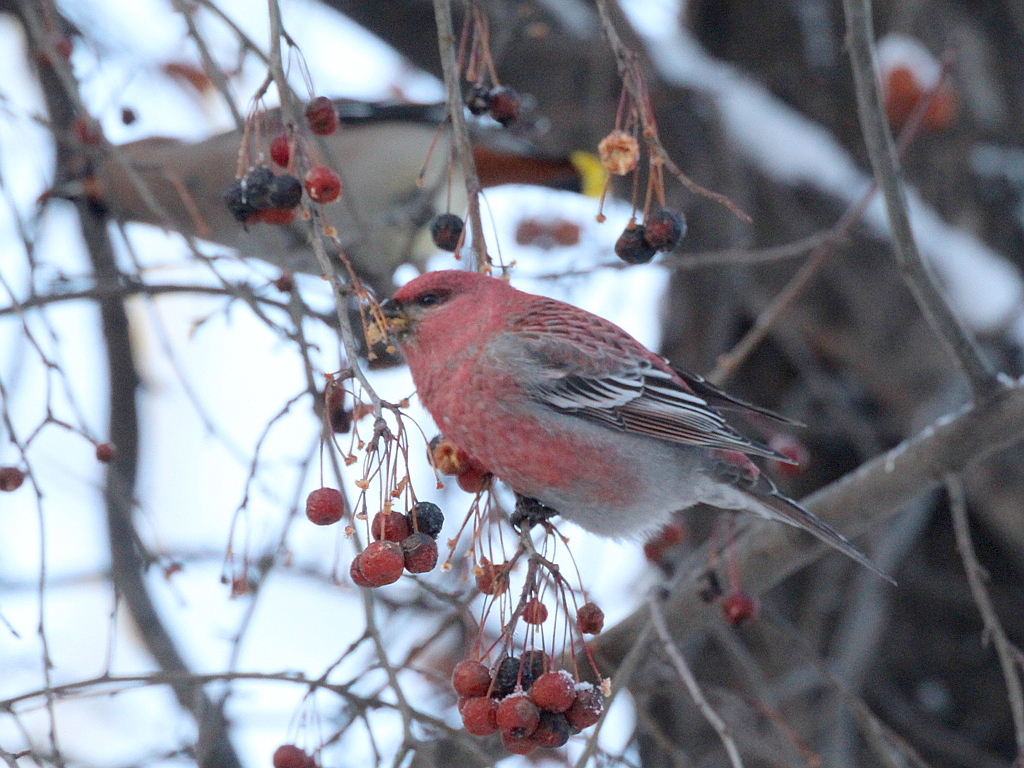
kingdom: Animalia
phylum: Chordata
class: Aves
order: Passeriformes
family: Fringillidae
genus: Pinicola
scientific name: Pinicola enucleator
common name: Pine grosbeak
